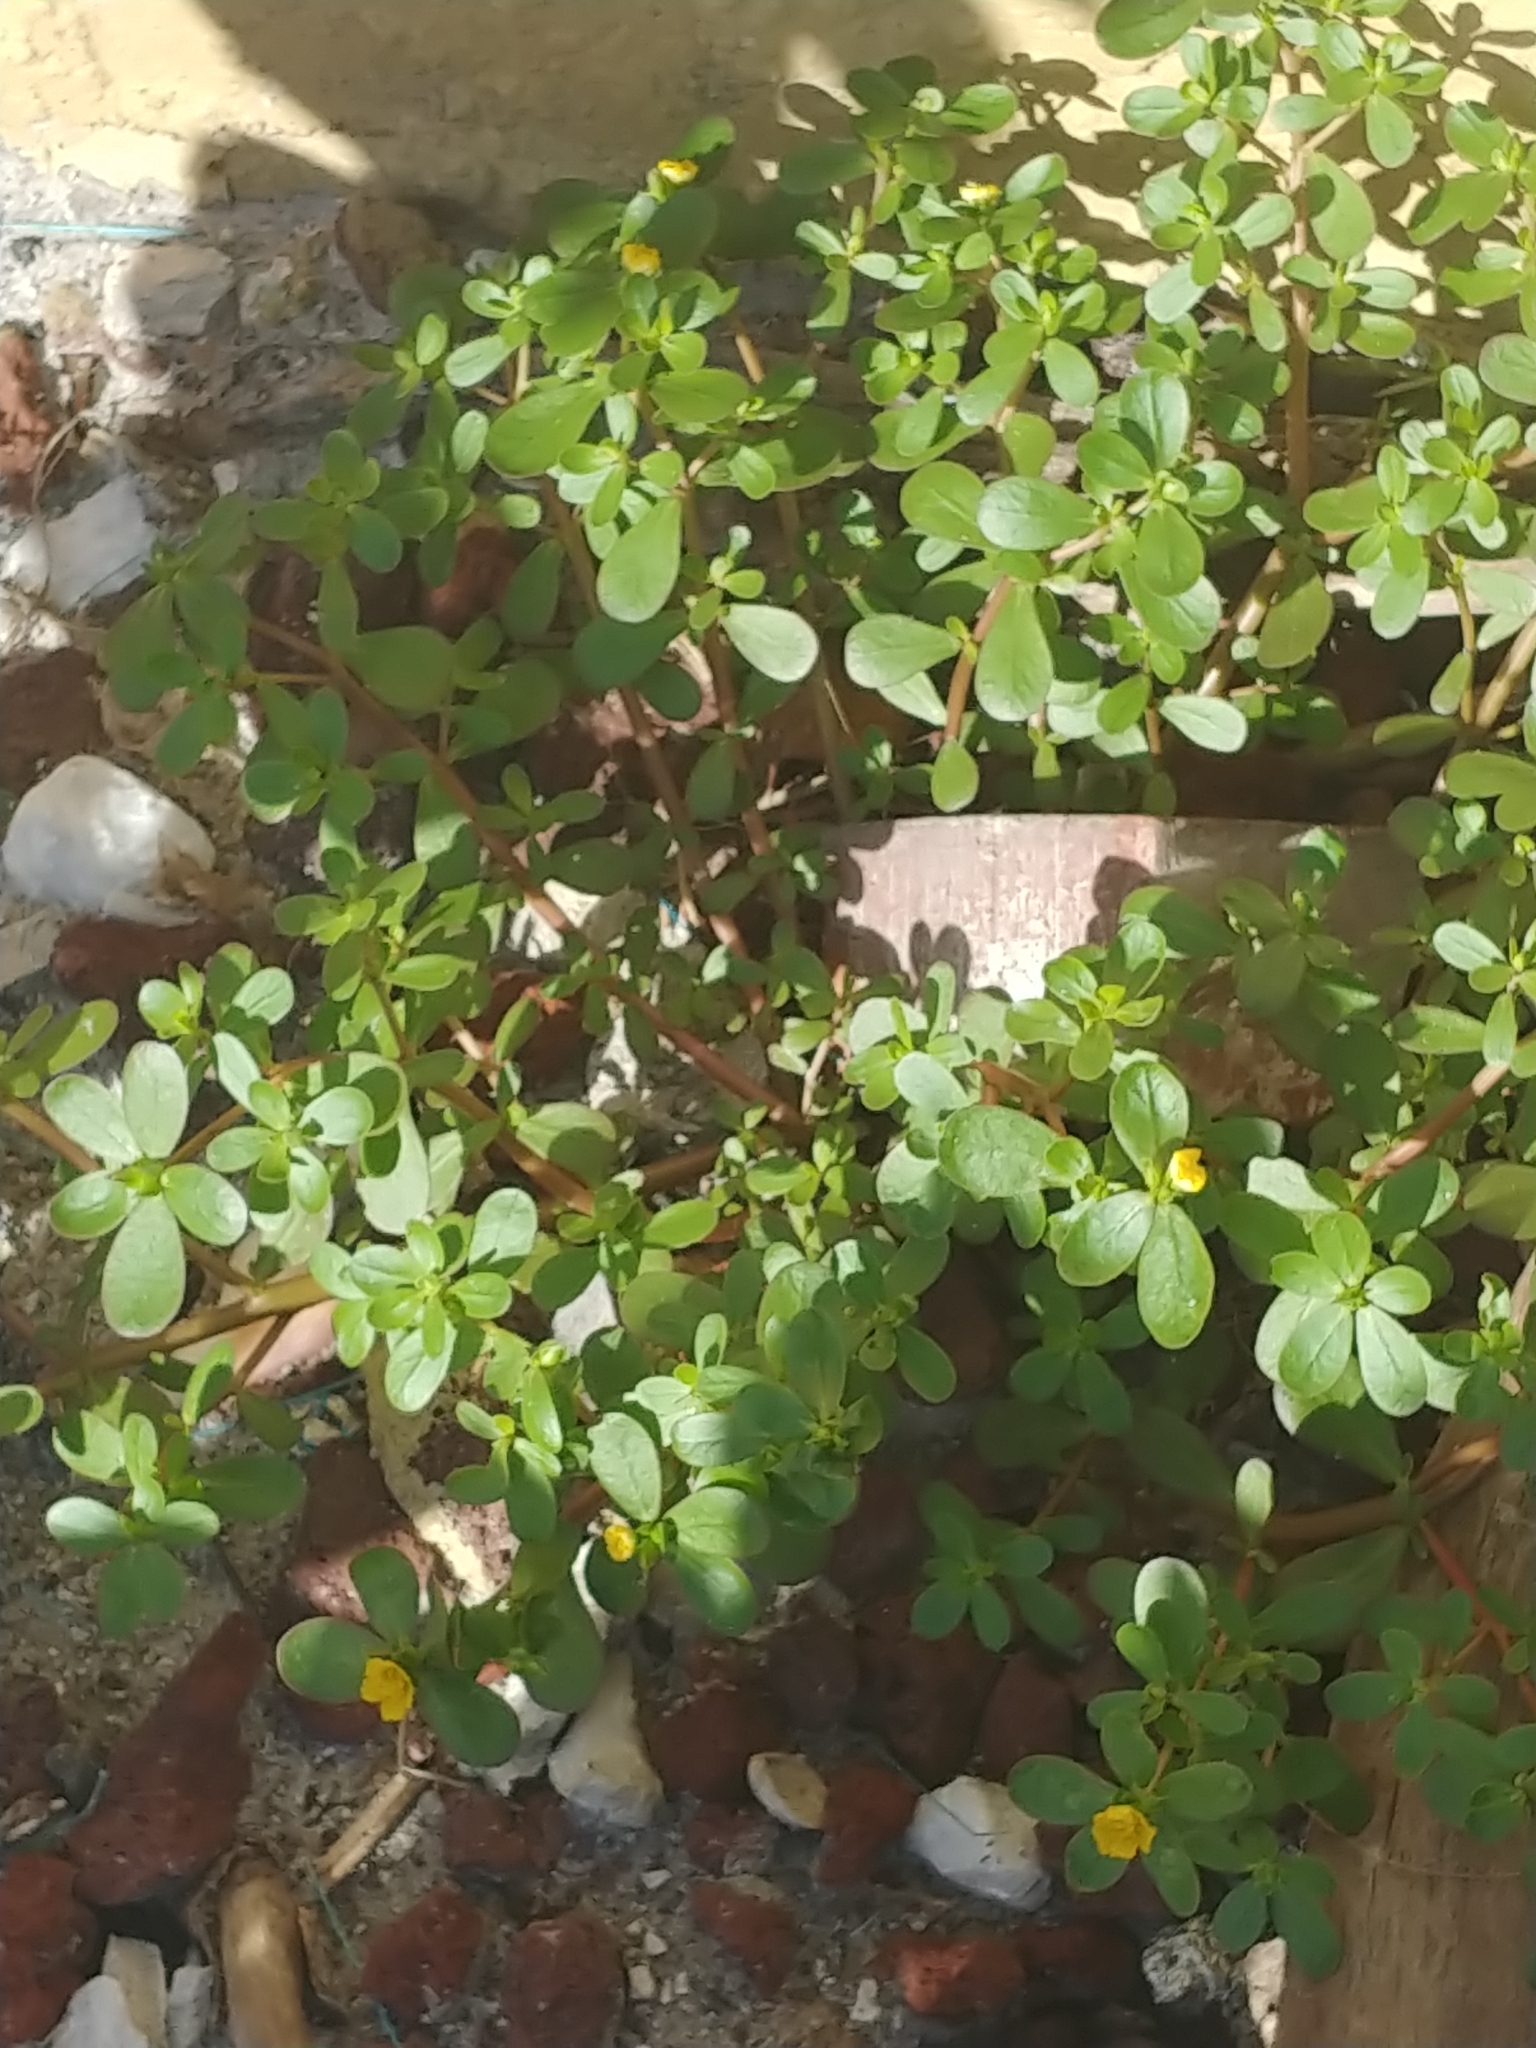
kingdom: Plantae
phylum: Tracheophyta
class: Magnoliopsida
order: Caryophyllales
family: Portulacaceae
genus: Portulaca
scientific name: Portulaca oleracea
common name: Common purslane
